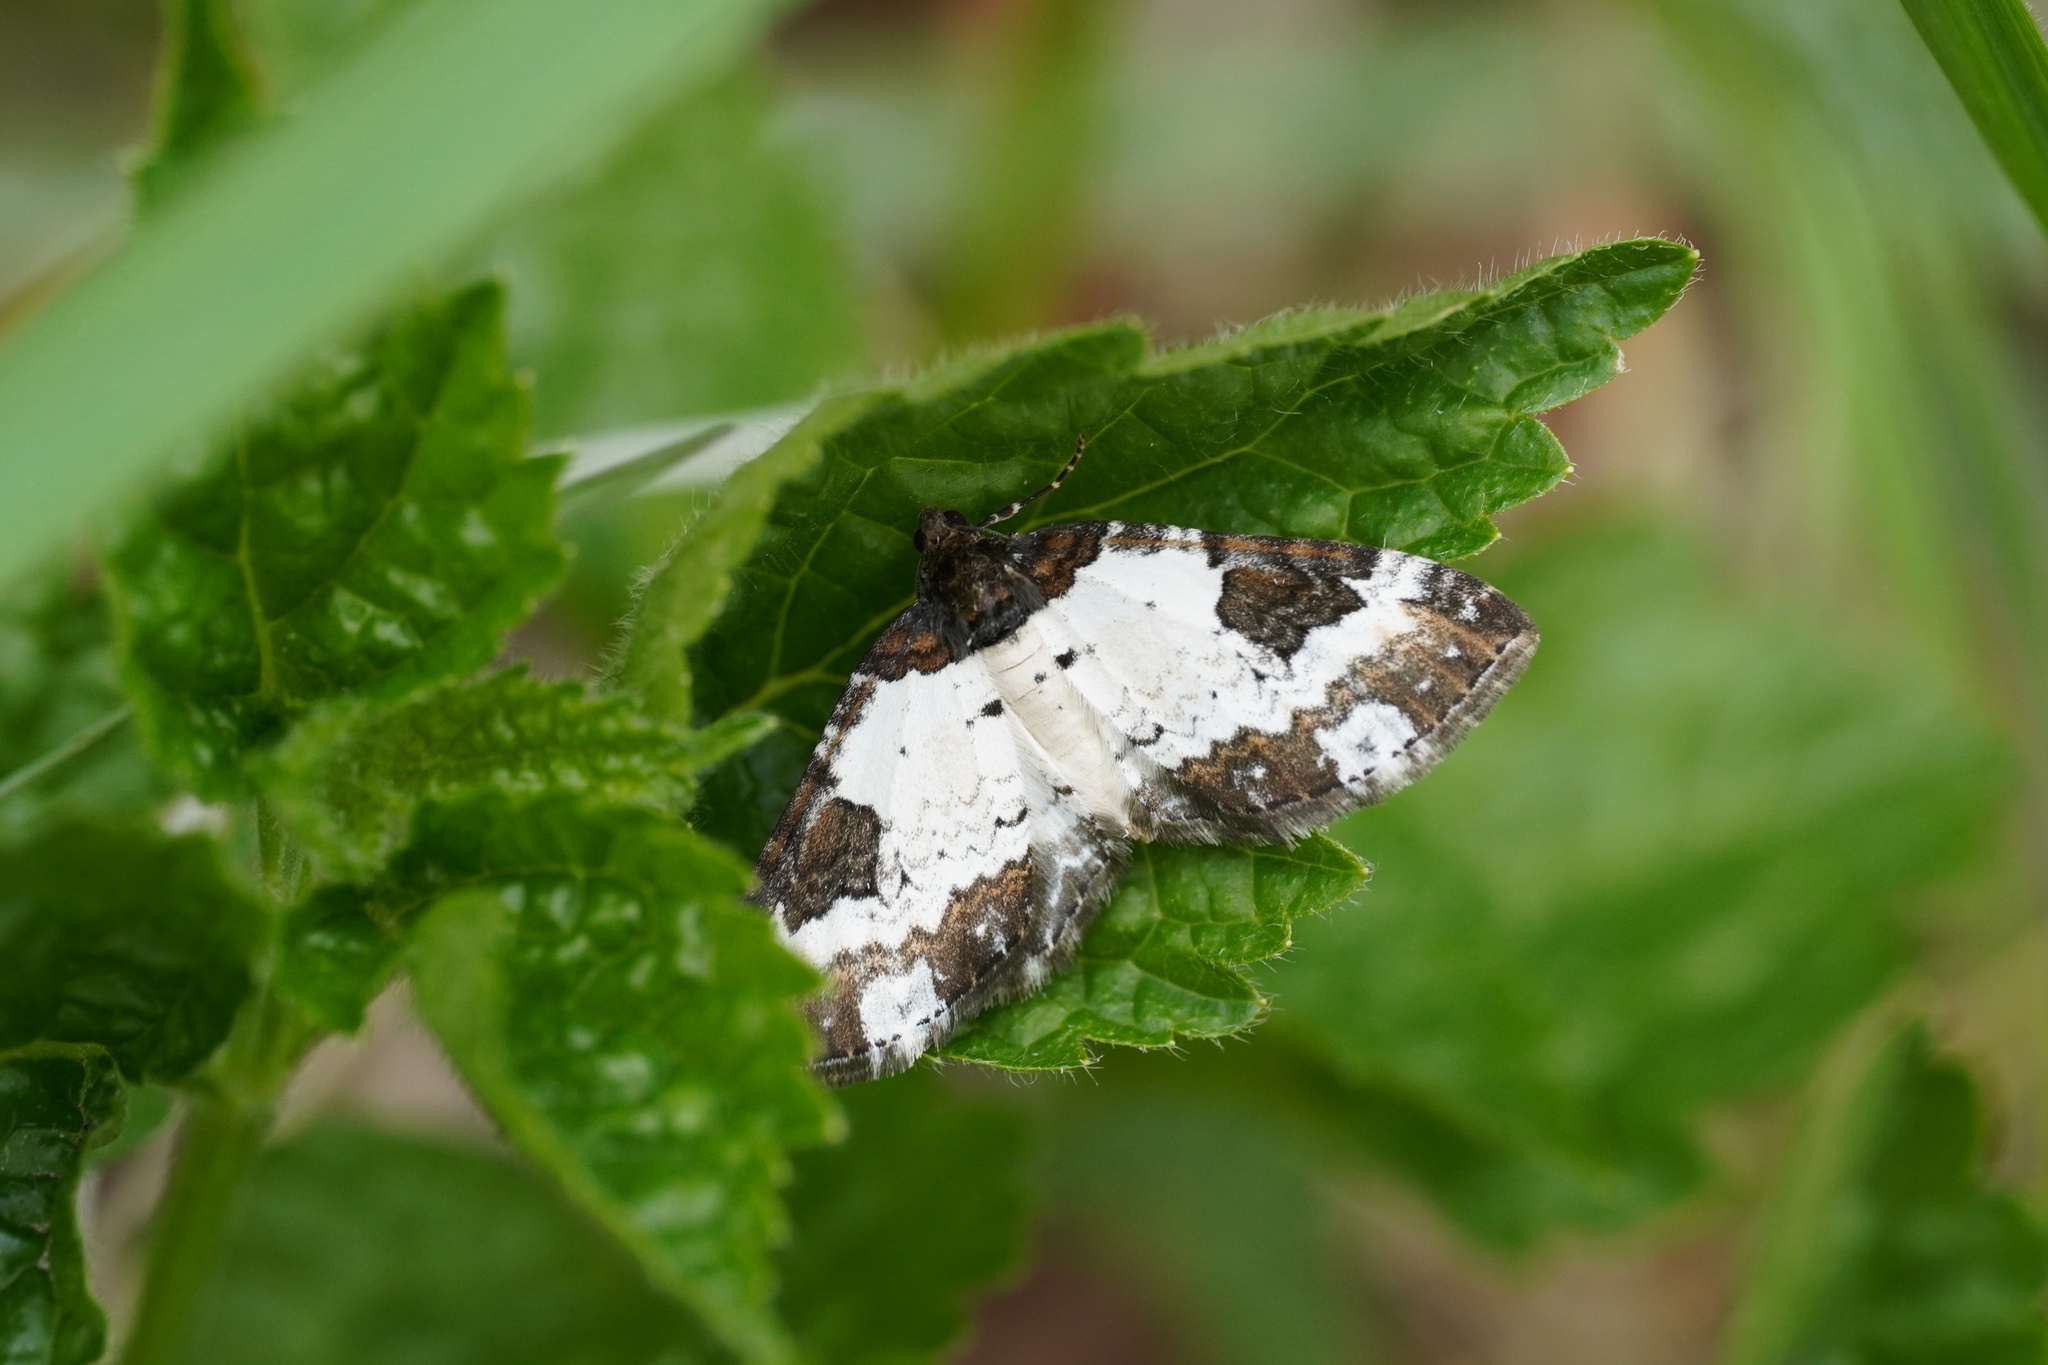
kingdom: Animalia
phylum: Arthropoda
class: Insecta
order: Lepidoptera
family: Geometridae
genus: Melanthia
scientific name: Melanthia procellata
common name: Pretty chalk carpet
